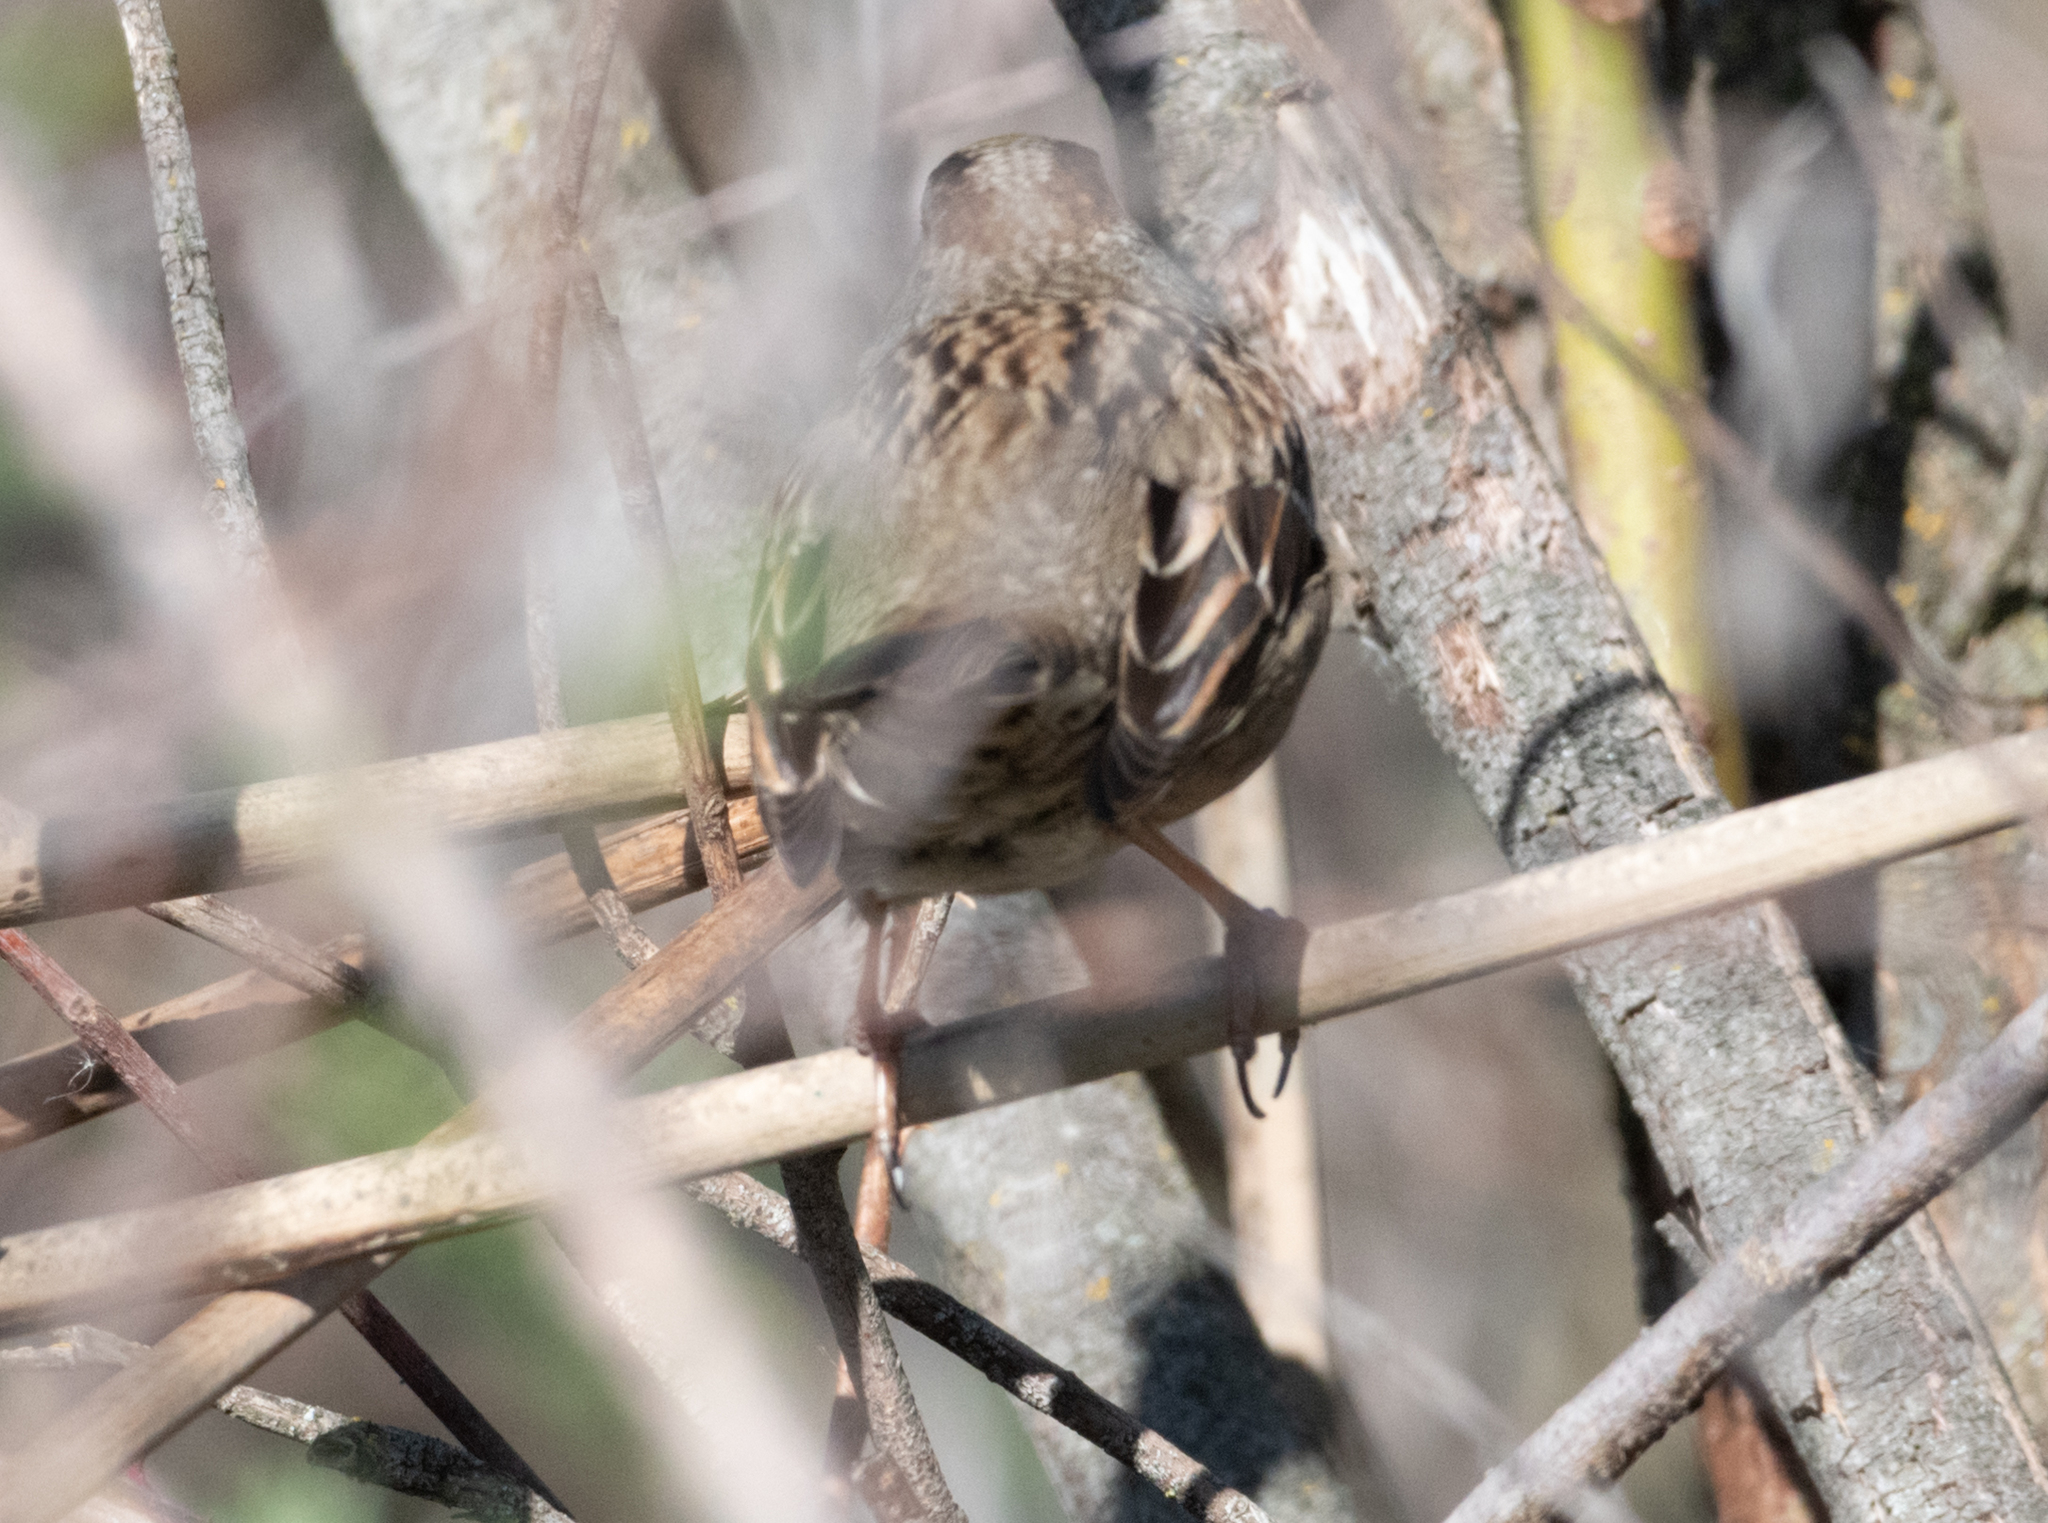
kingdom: Animalia
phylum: Chordata
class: Aves
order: Passeriformes
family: Passerellidae
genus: Zonotrichia
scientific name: Zonotrichia atricapilla
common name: Golden-crowned sparrow
